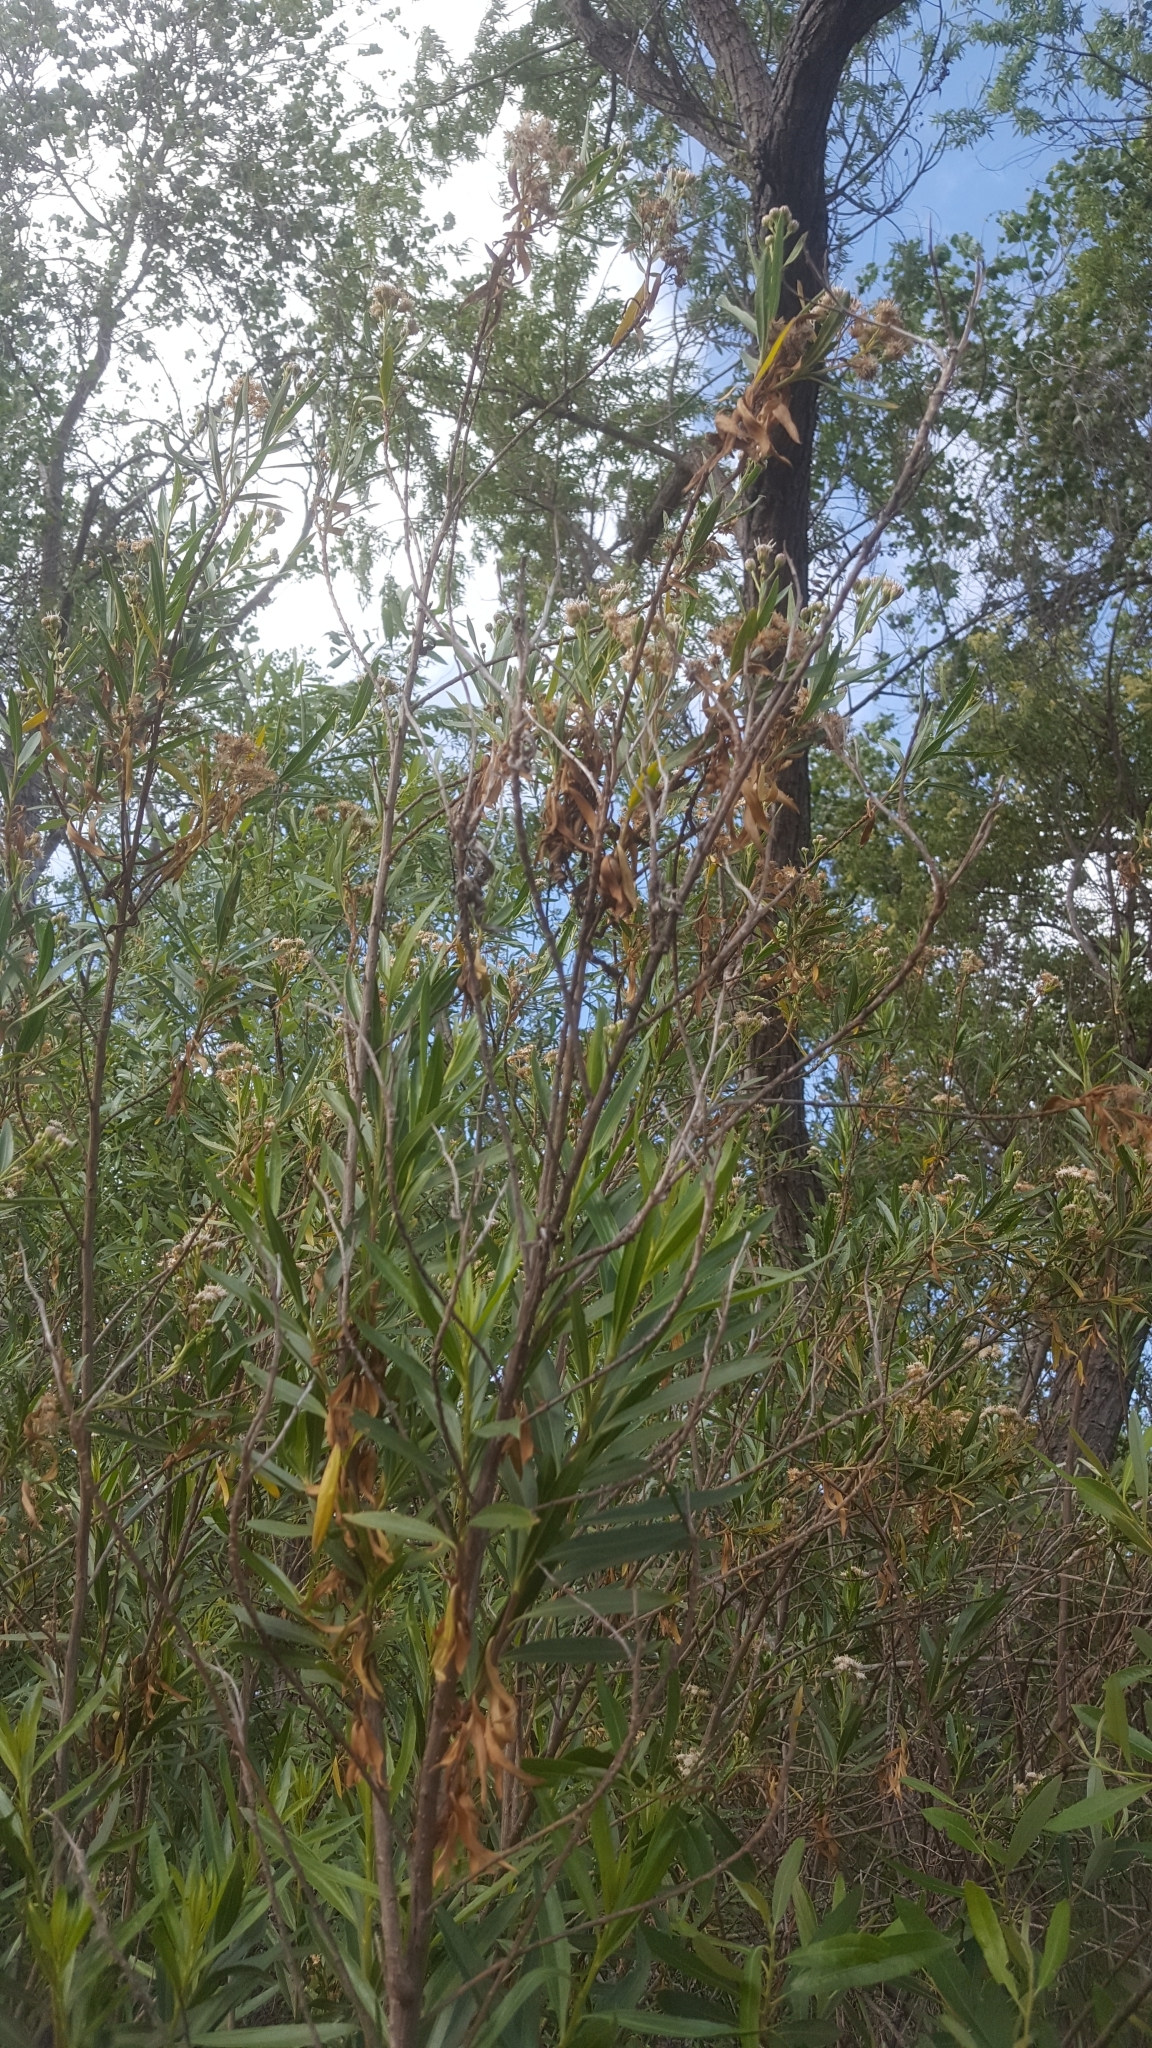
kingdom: Plantae
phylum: Tracheophyta
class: Magnoliopsida
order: Asterales
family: Asteraceae
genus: Baccharis
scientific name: Baccharis salicifolia
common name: Sticky baccharis
